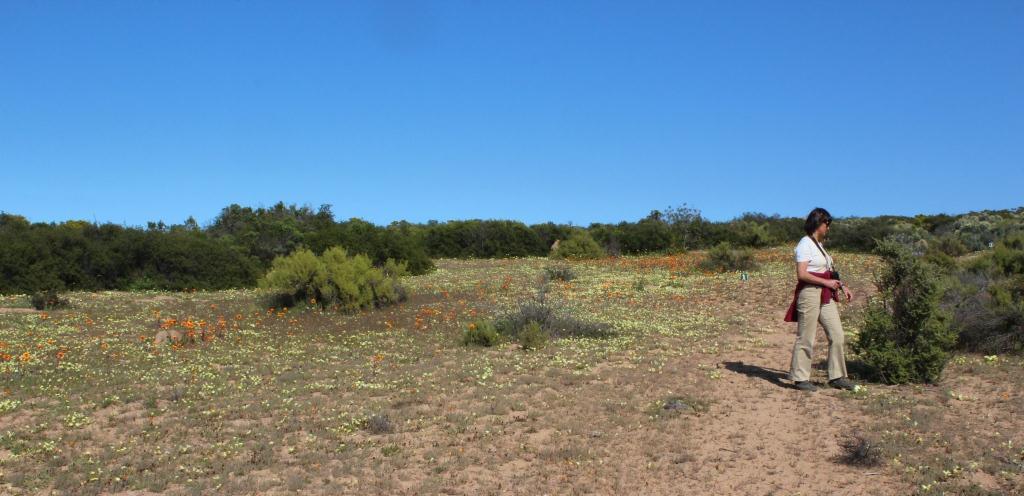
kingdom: Plantae
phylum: Tracheophyta
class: Magnoliopsida
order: Malvales
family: Neuradaceae
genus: Grielum
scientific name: Grielum humifusum
